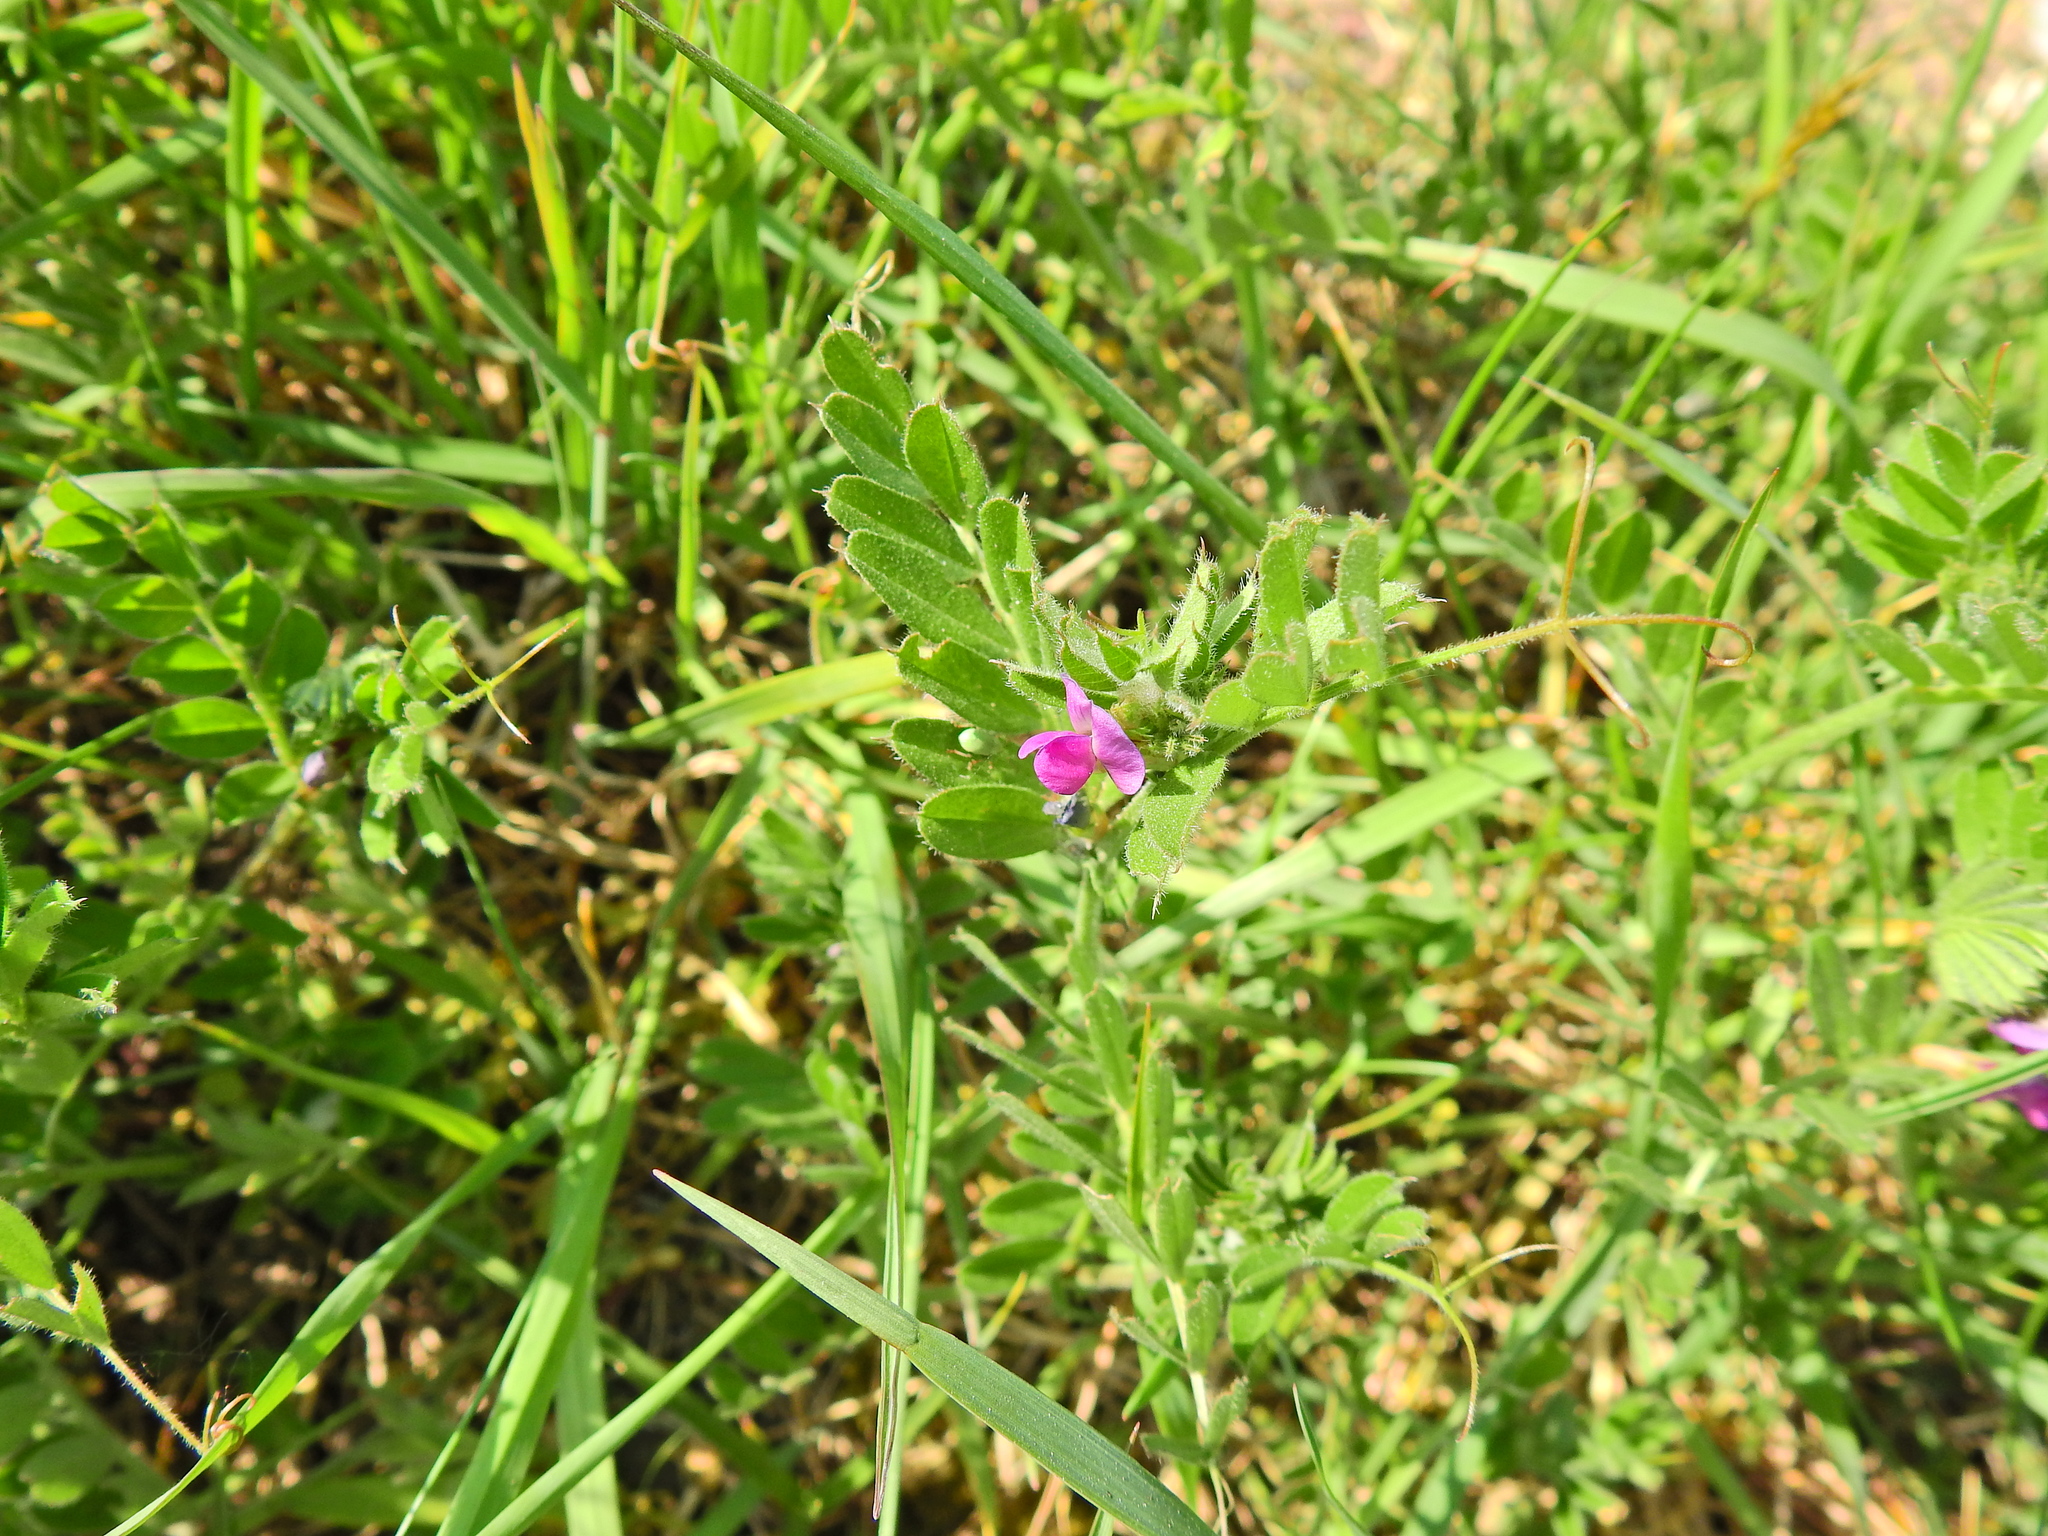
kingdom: Plantae
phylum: Tracheophyta
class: Magnoliopsida
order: Fabales
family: Fabaceae
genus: Vicia
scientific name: Vicia sativa
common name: Garden vetch
